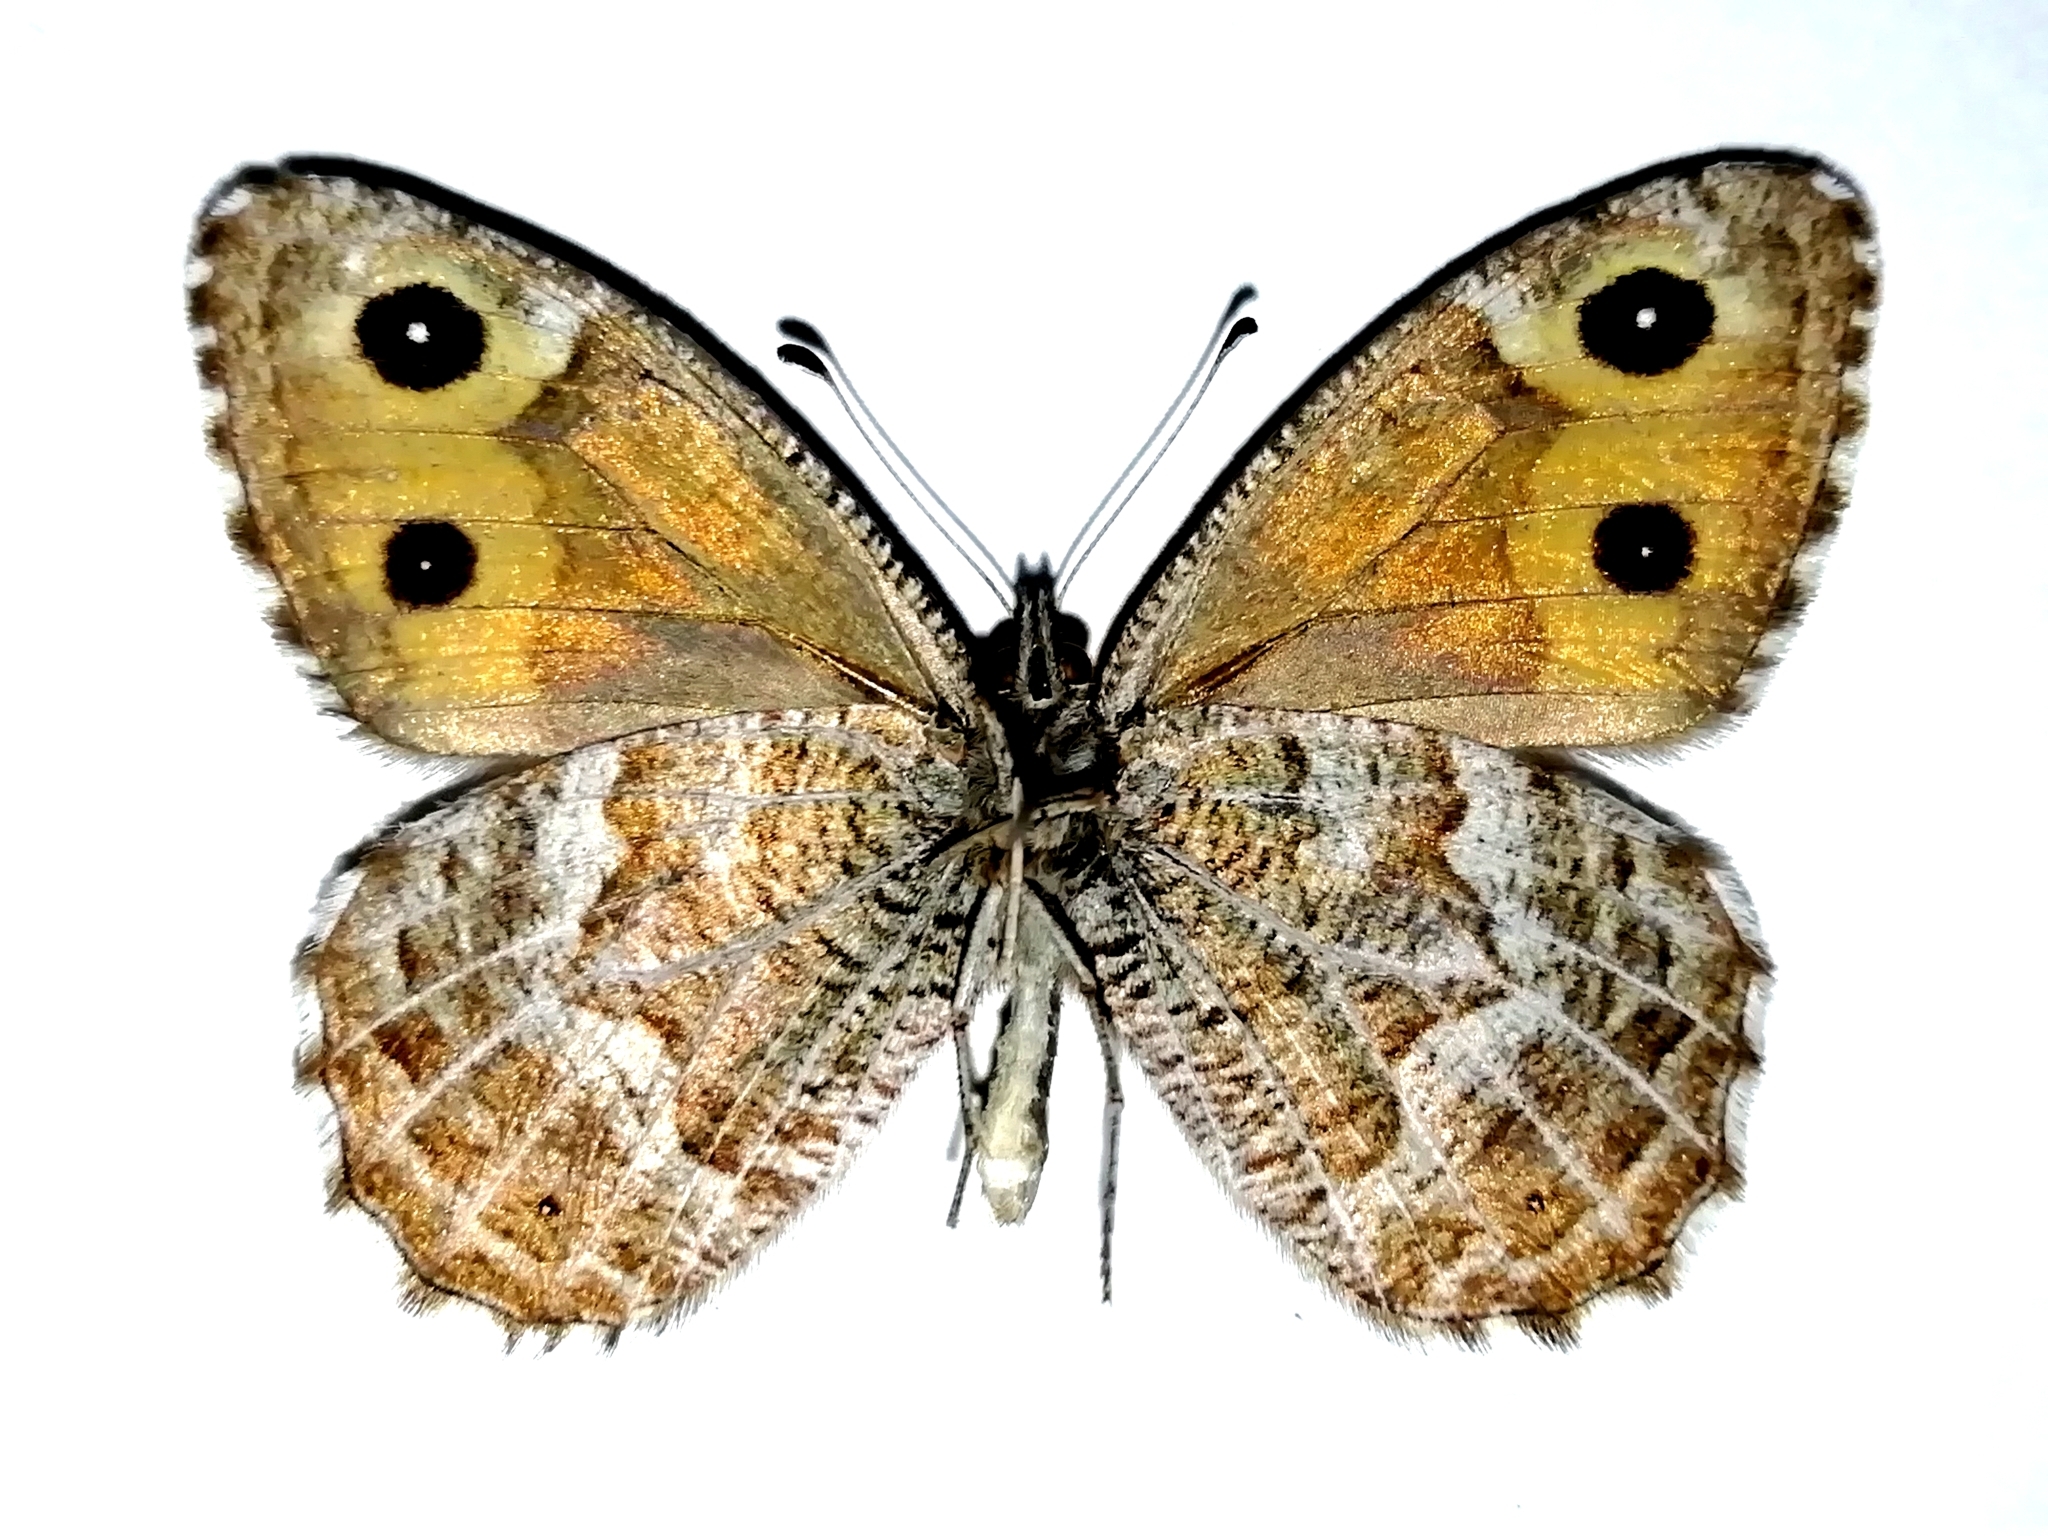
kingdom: Animalia
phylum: Arthropoda
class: Insecta
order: Lepidoptera
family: Nymphalidae
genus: Hipparchia
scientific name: Hipparchia autonoe
